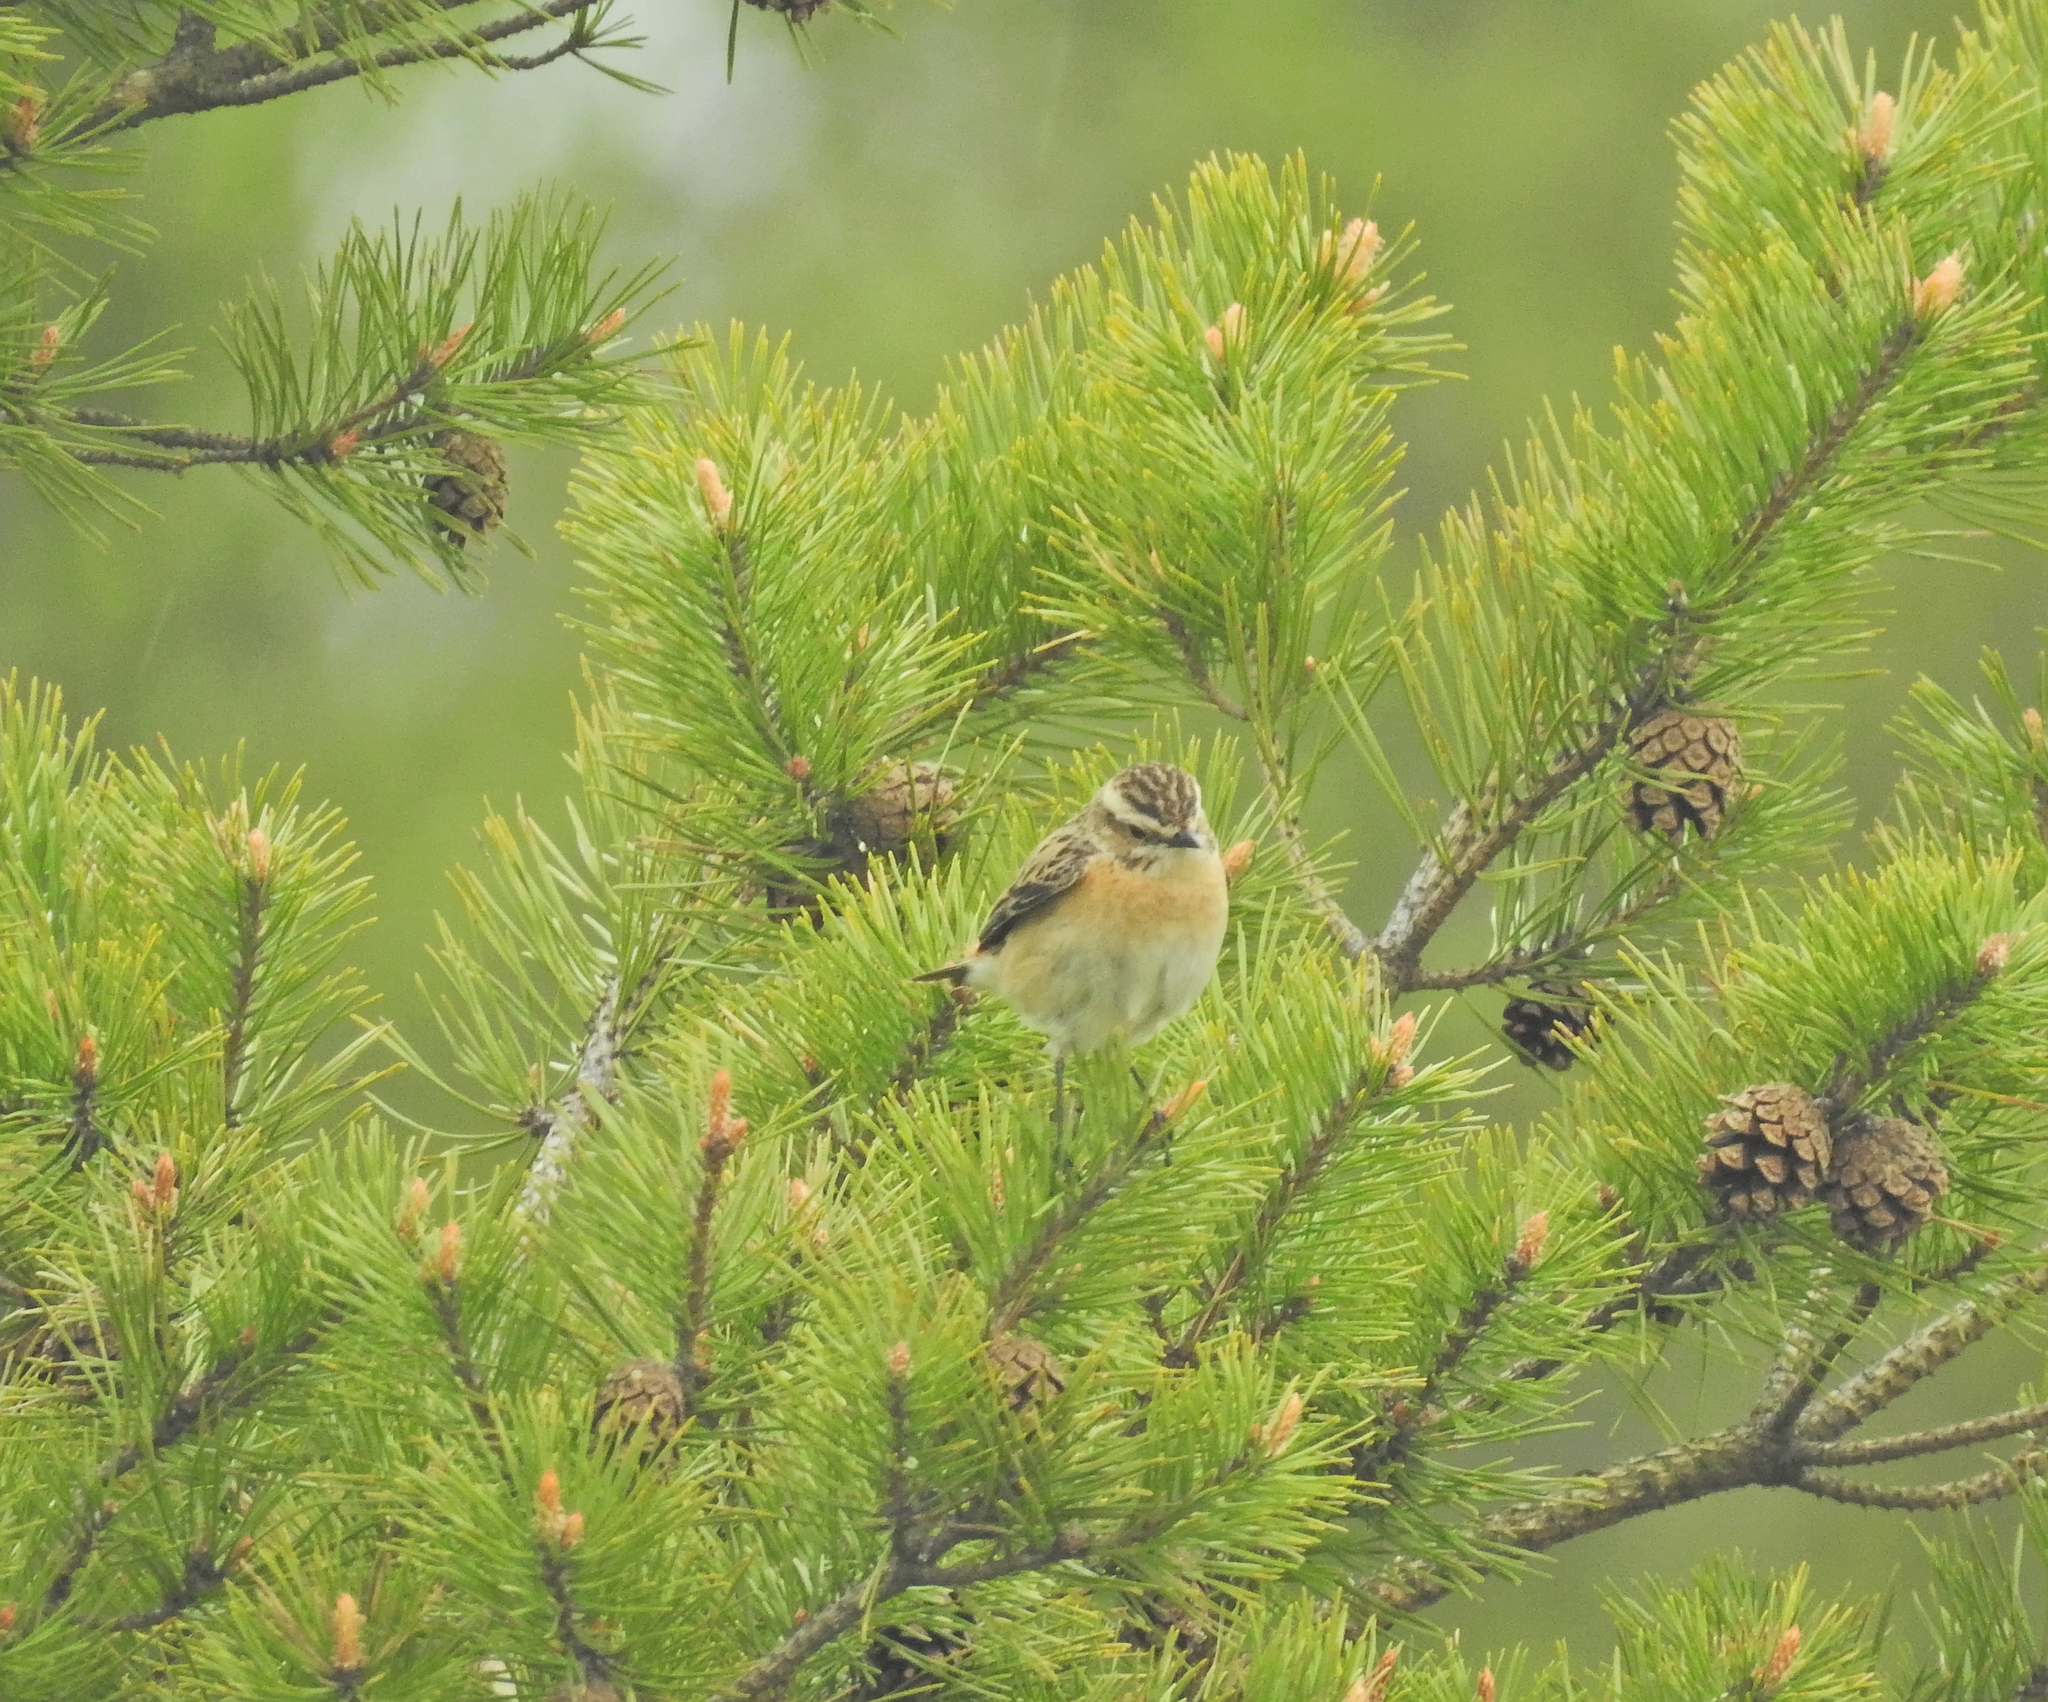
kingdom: Animalia
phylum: Chordata
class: Aves
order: Passeriformes
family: Muscicapidae
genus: Saxicola
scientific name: Saxicola rubetra
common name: Whinchat
